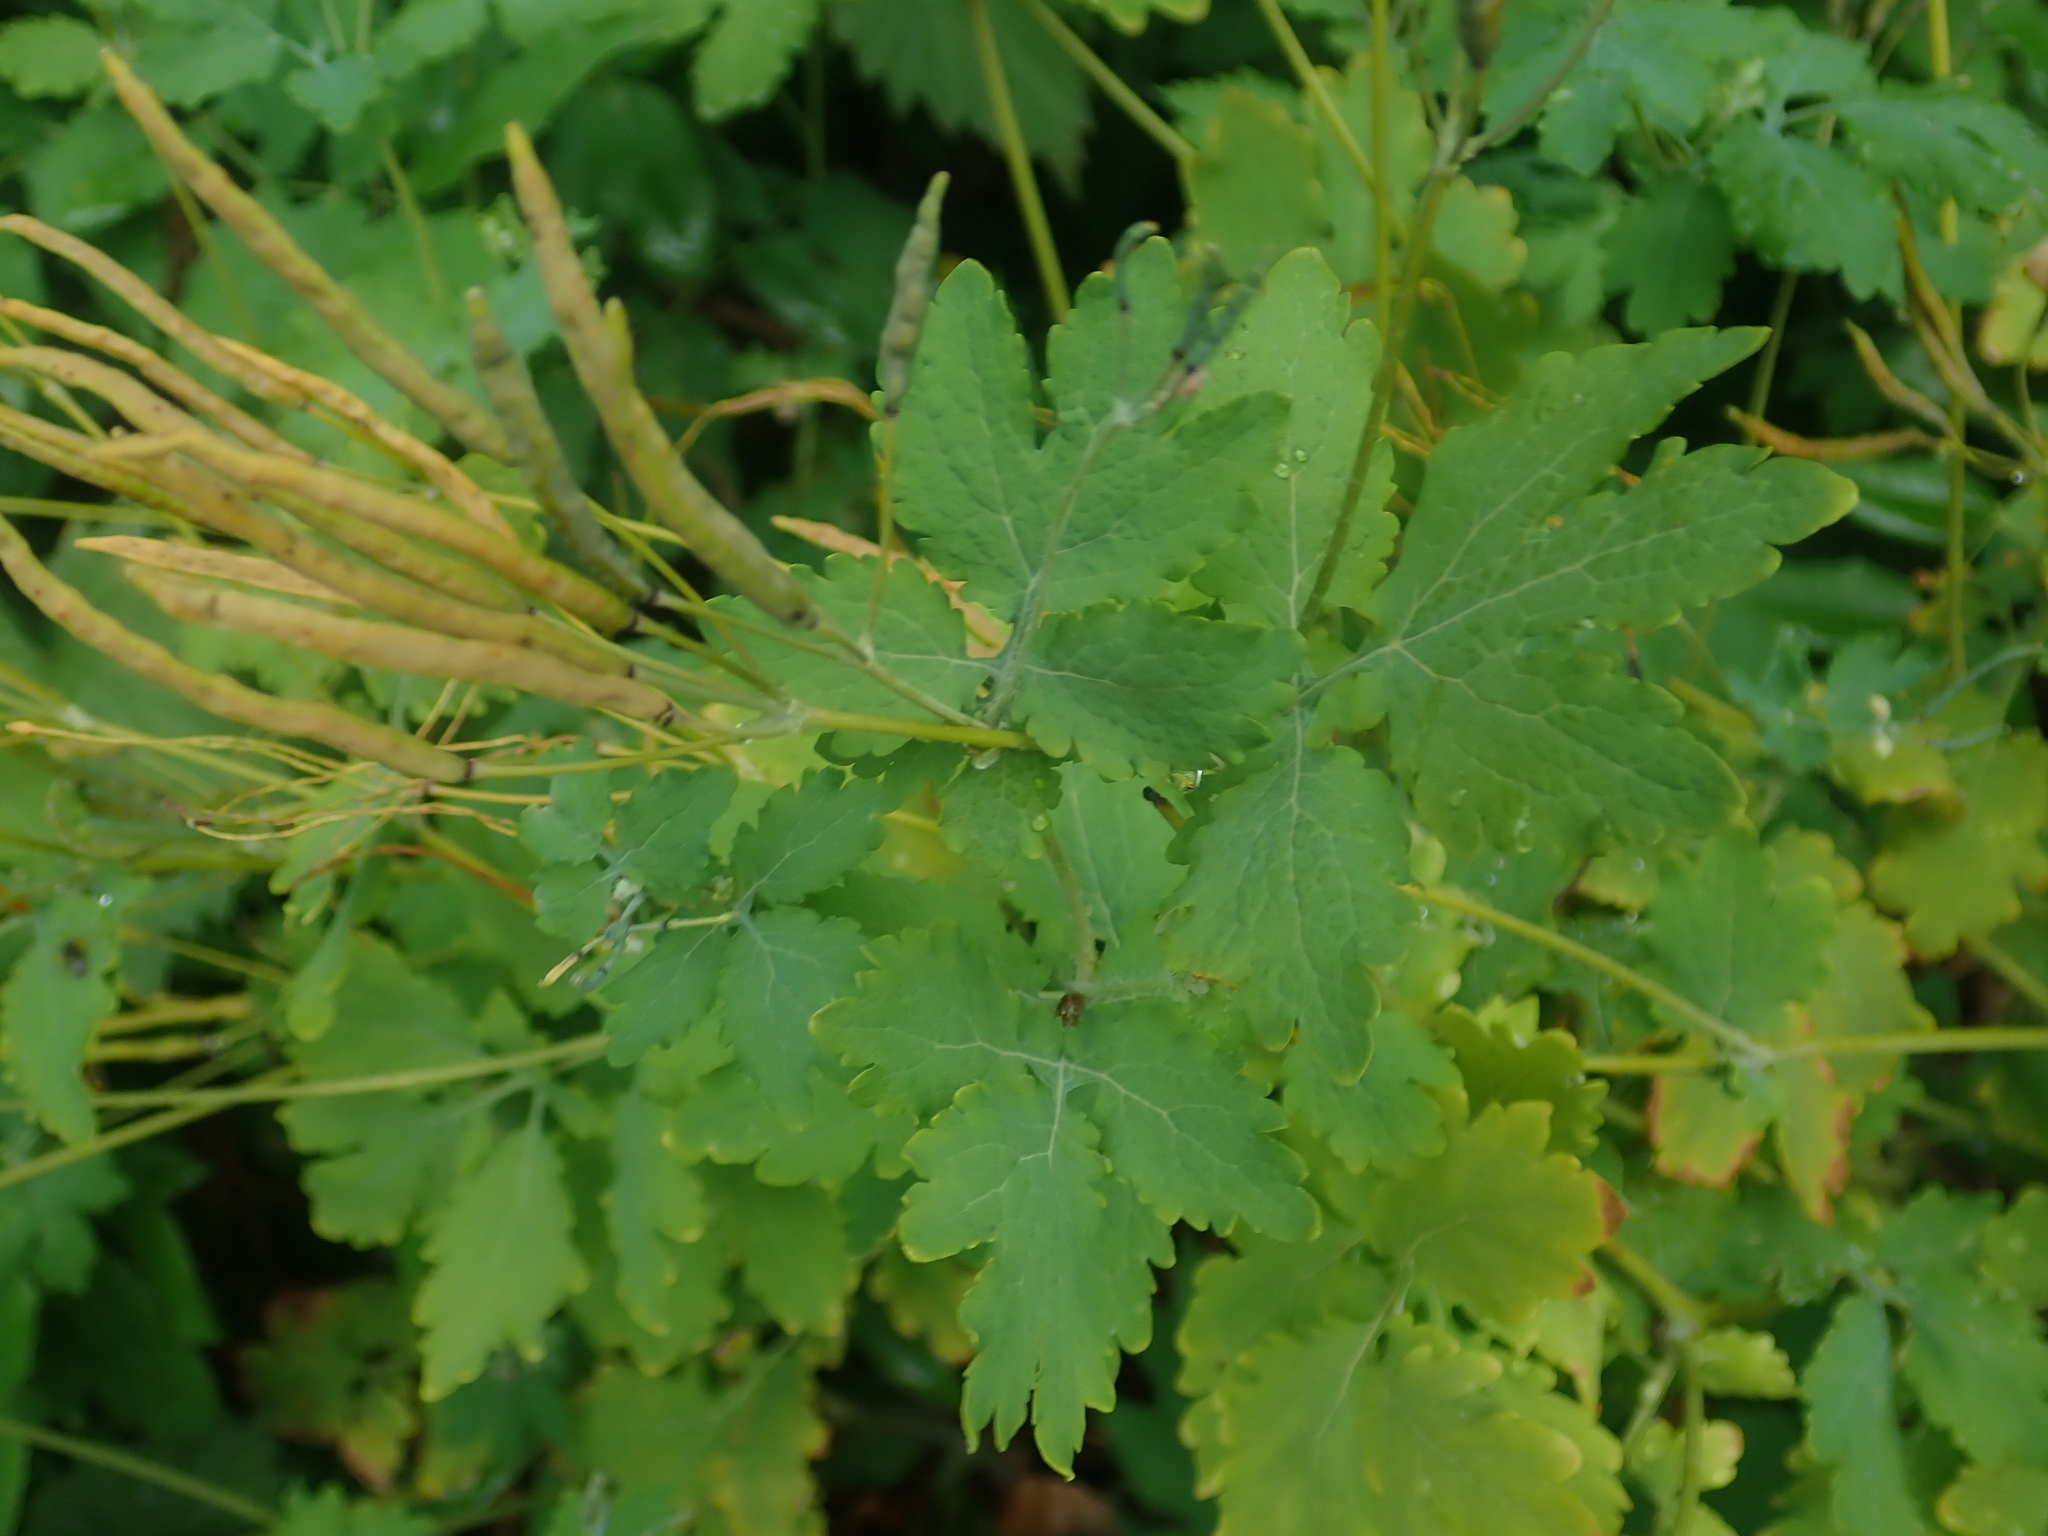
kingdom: Plantae
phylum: Tracheophyta
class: Magnoliopsida
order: Ranunculales
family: Papaveraceae
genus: Chelidonium
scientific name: Chelidonium majus
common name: Greater celandine
